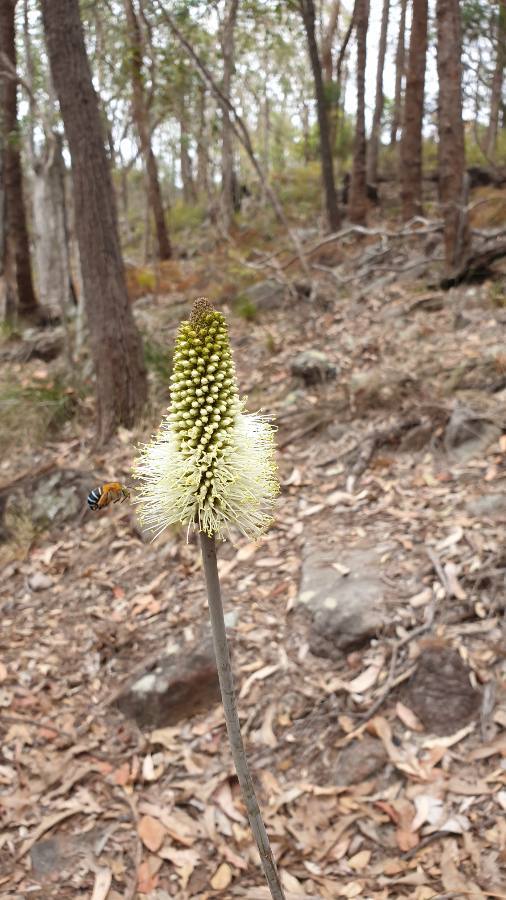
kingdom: Plantae
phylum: Tracheophyta
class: Liliopsida
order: Asparagales
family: Asphodelaceae
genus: Xanthorrhoea
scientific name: Xanthorrhoea macronema
